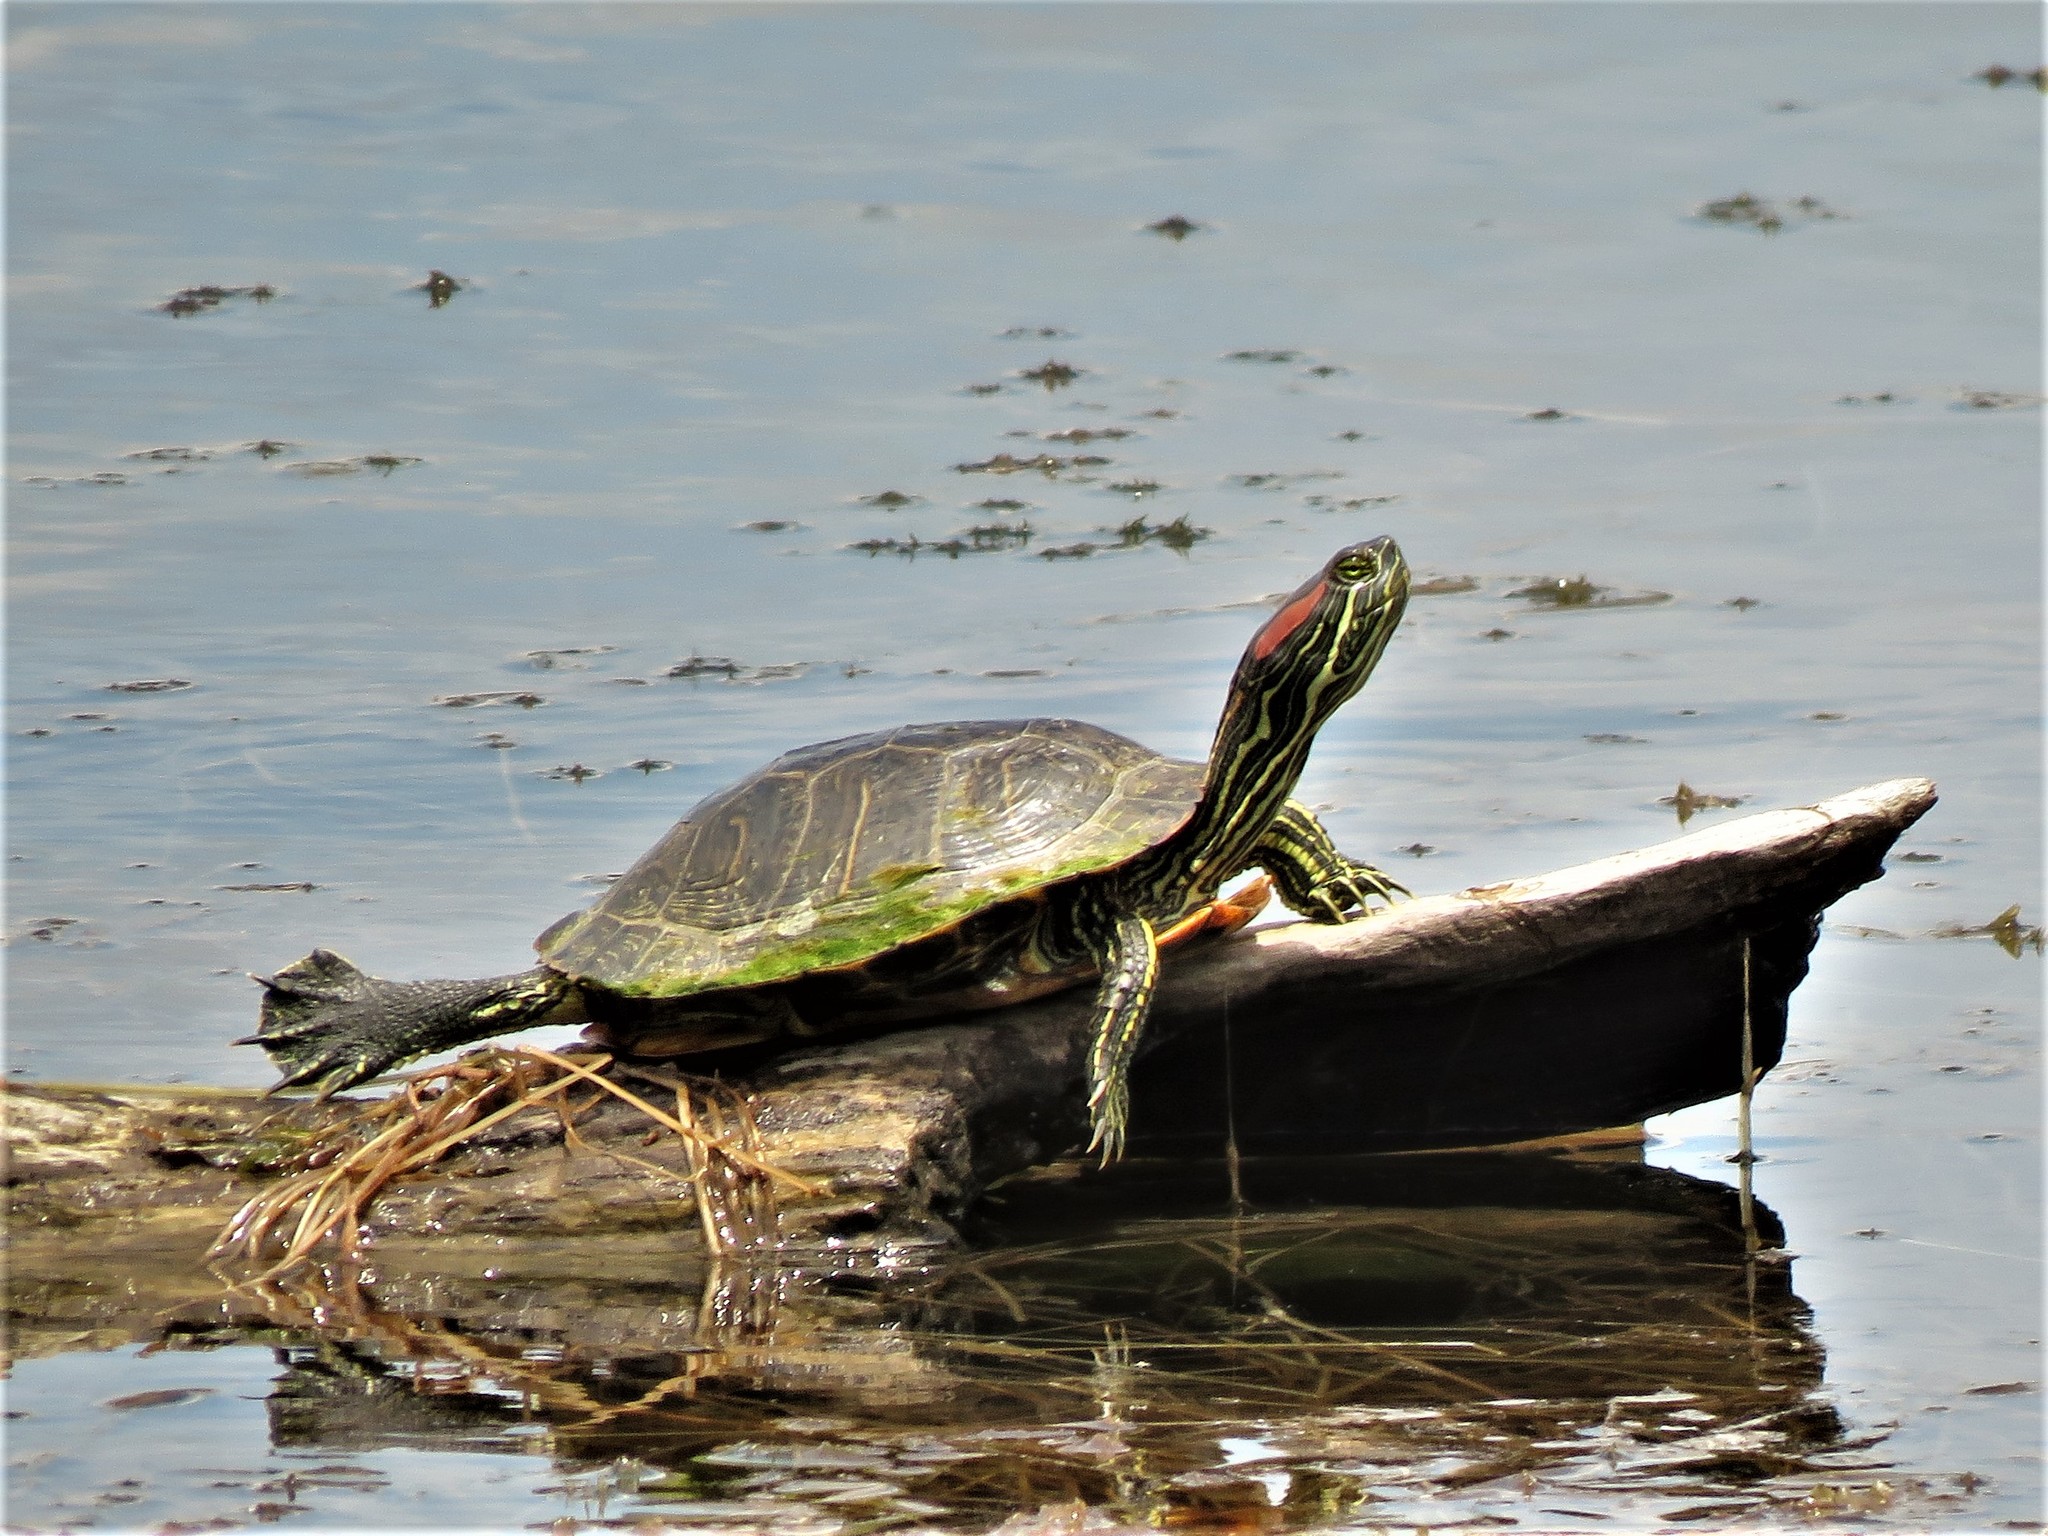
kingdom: Animalia
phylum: Chordata
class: Testudines
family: Emydidae
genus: Trachemys
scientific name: Trachemys scripta
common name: Slider
